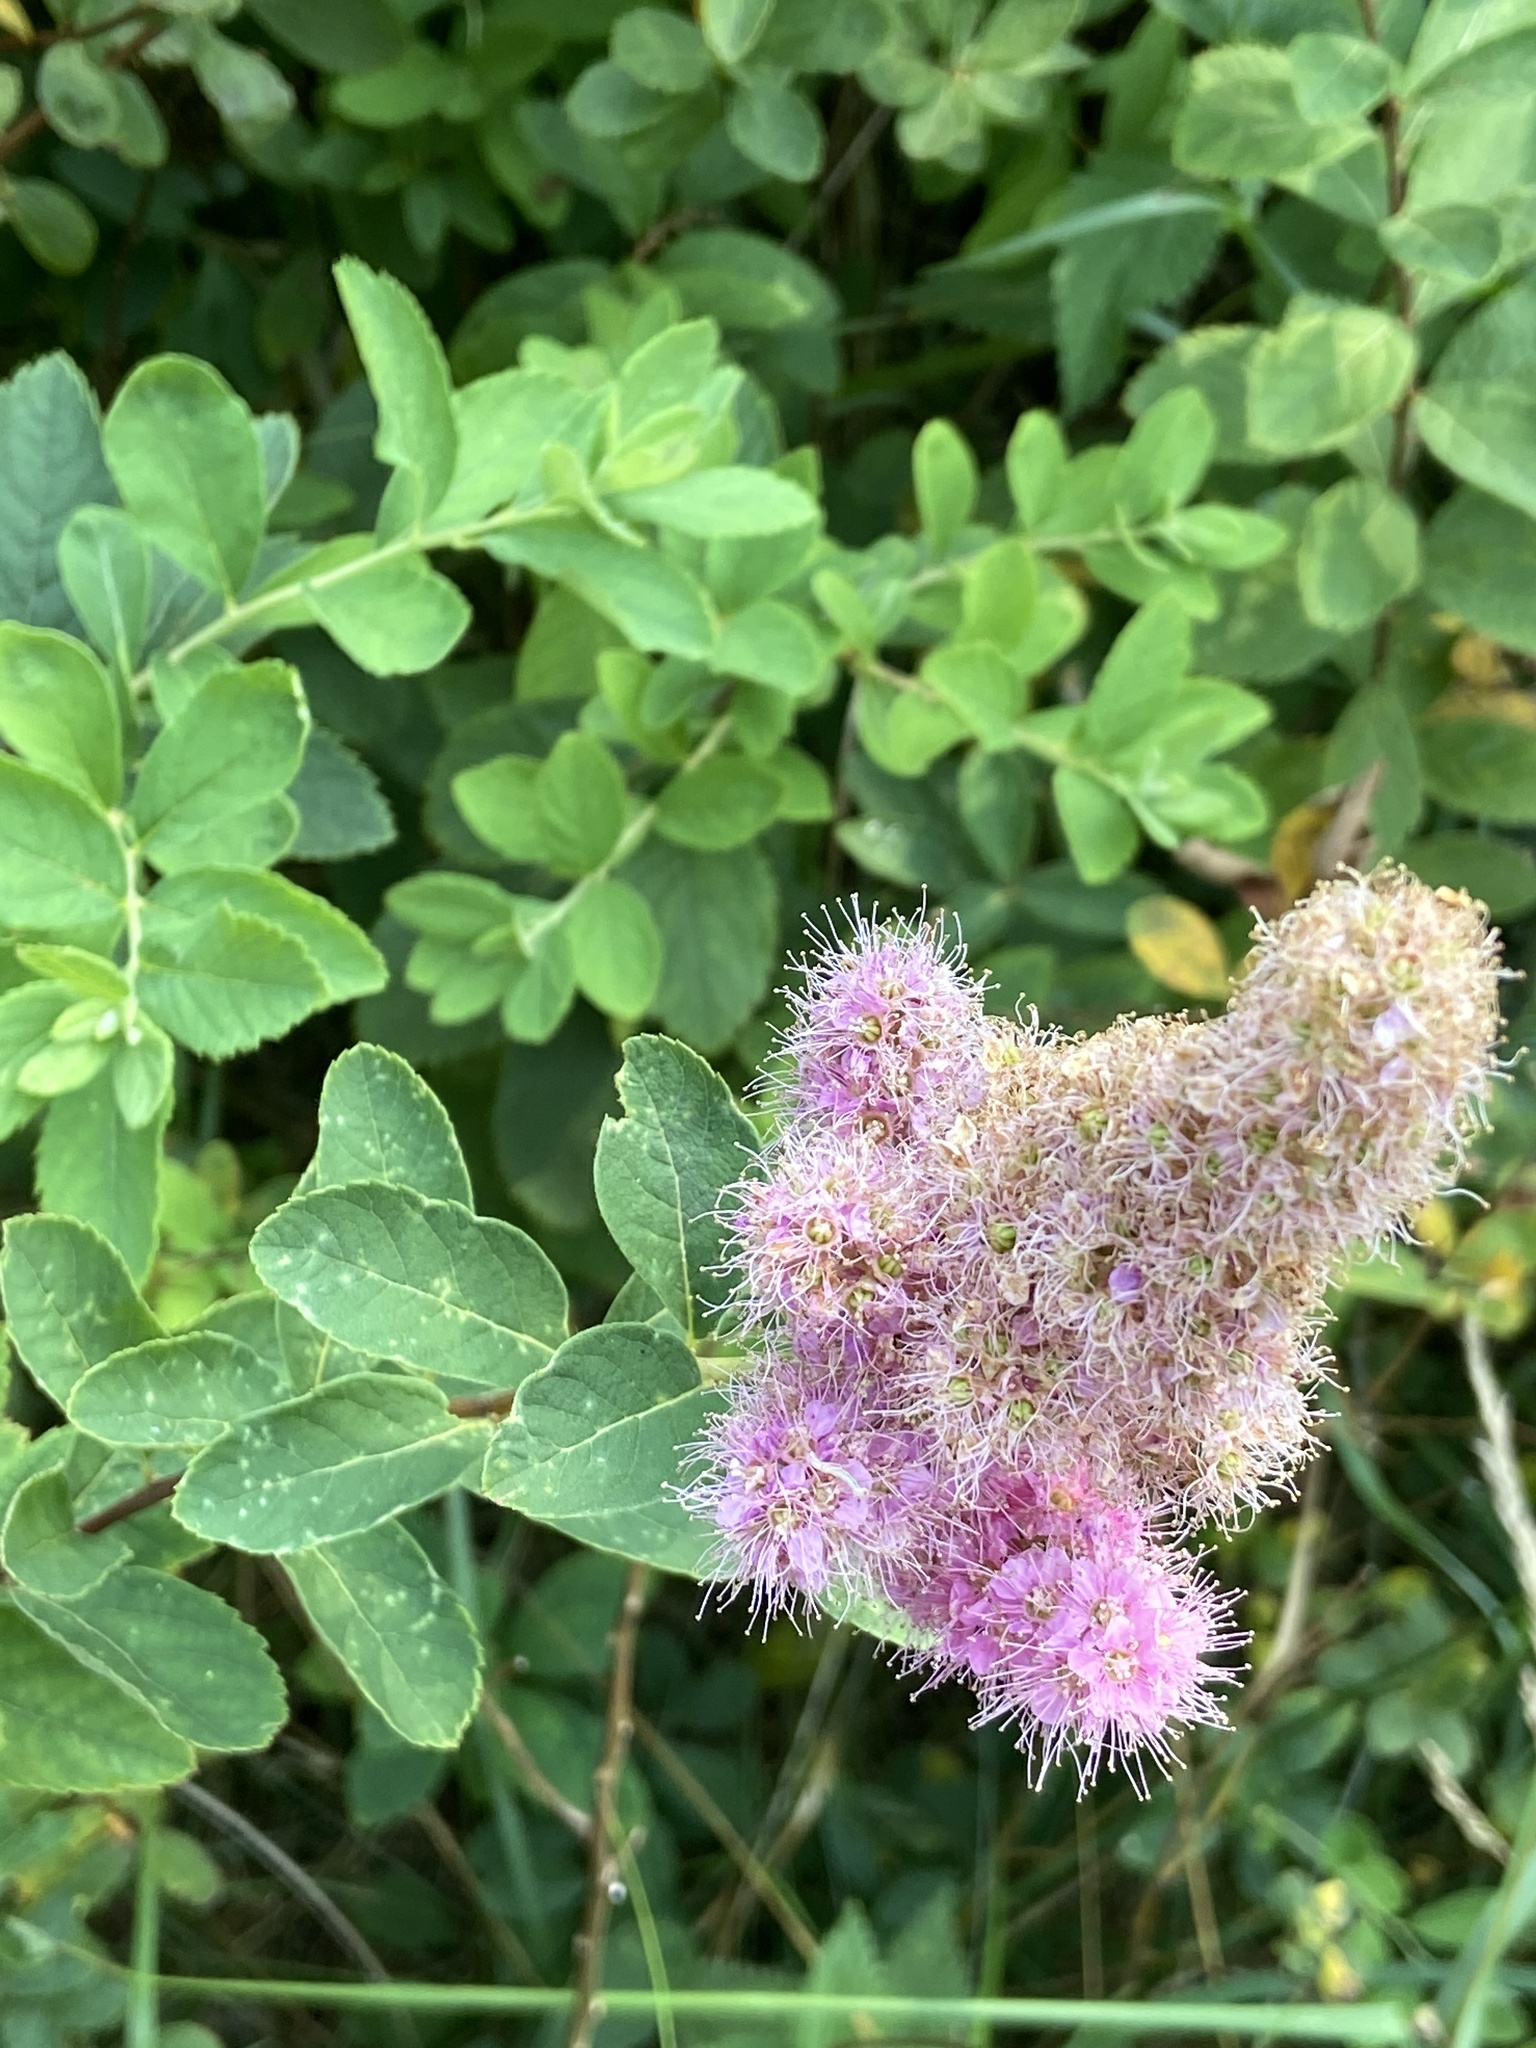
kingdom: Plantae
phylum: Tracheophyta
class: Magnoliopsida
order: Rosales
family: Rosaceae
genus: Spiraea
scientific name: Spiraea douglasii
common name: Steeplebush
